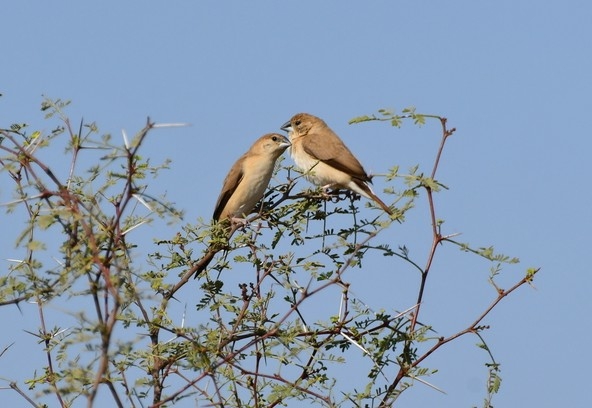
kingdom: Animalia
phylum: Chordata
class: Aves
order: Passeriformes
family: Estrildidae
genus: Euodice
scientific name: Euodice malabarica
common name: Indian silverbill
